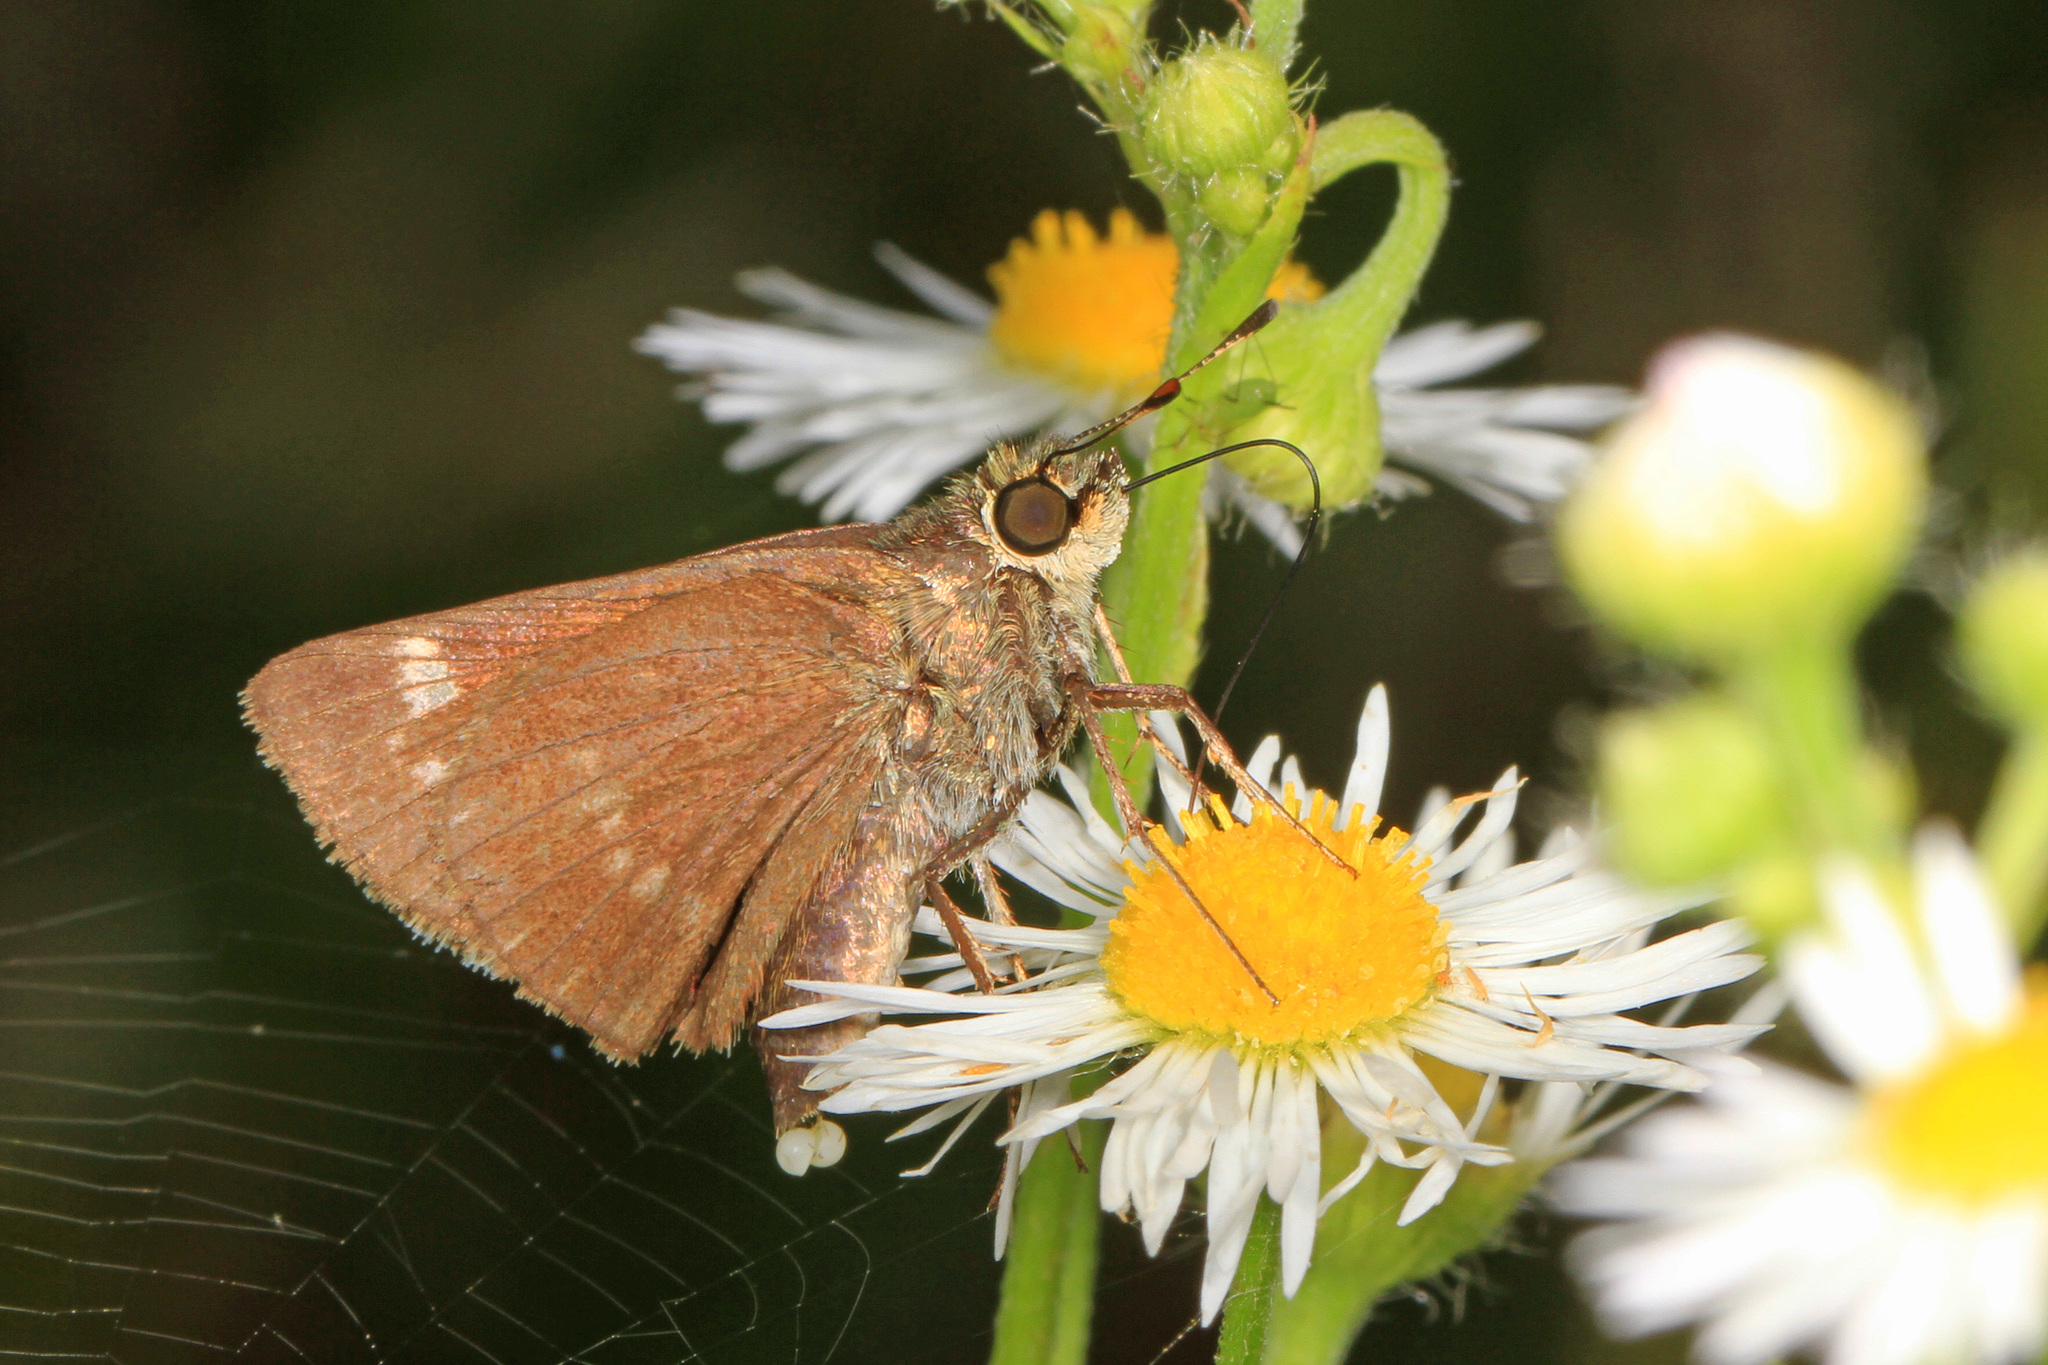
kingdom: Animalia
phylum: Arthropoda
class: Insecta
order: Lepidoptera
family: Hesperiidae
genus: Vernia
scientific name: Vernia verna
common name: Little glassywing
